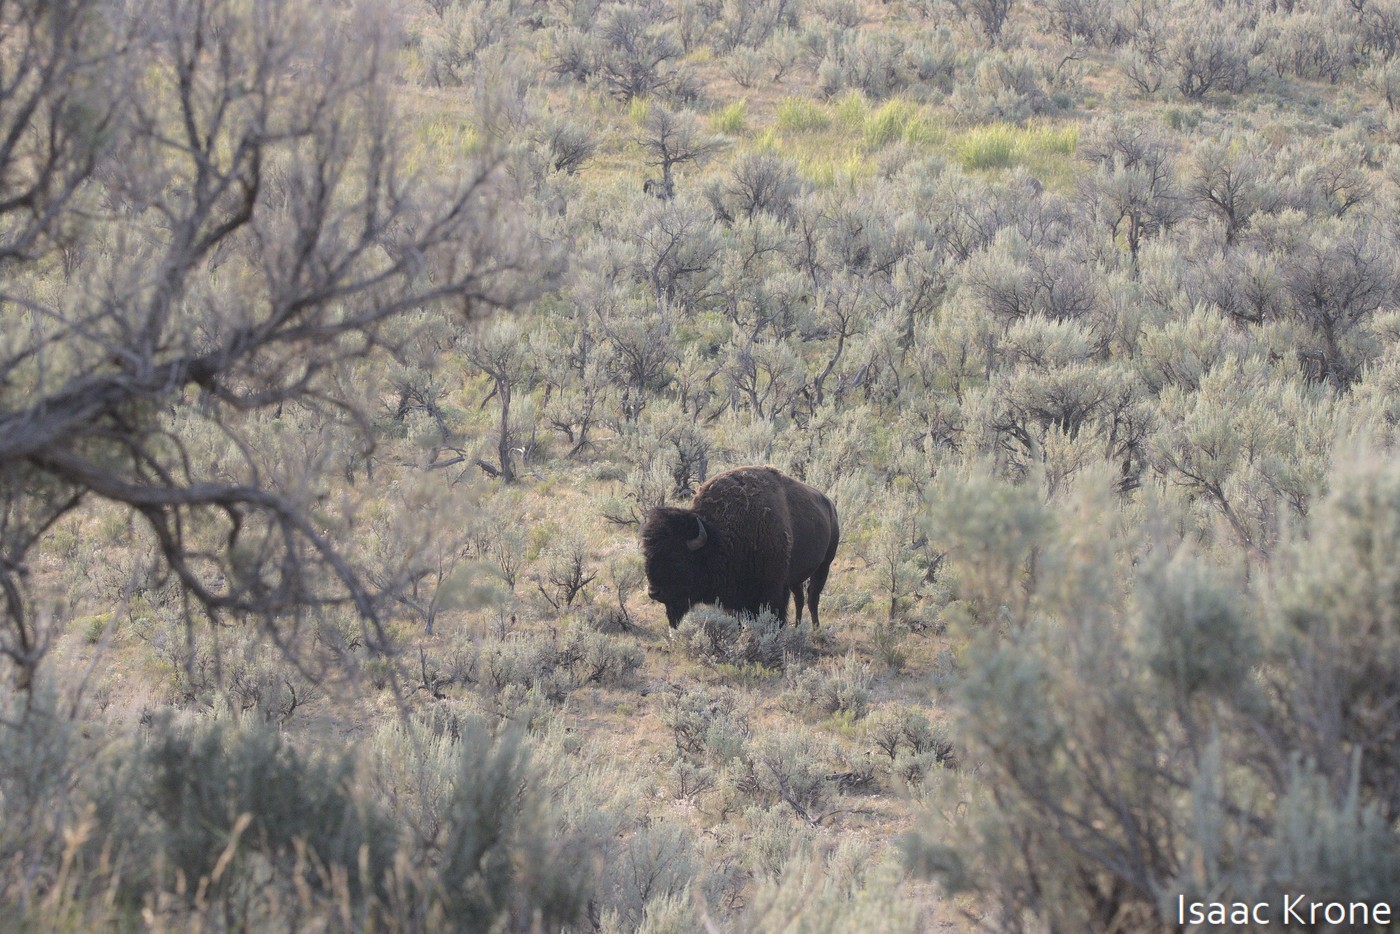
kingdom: Animalia
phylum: Chordata
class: Mammalia
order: Artiodactyla
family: Bovidae
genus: Bison
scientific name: Bison bison
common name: American bison
